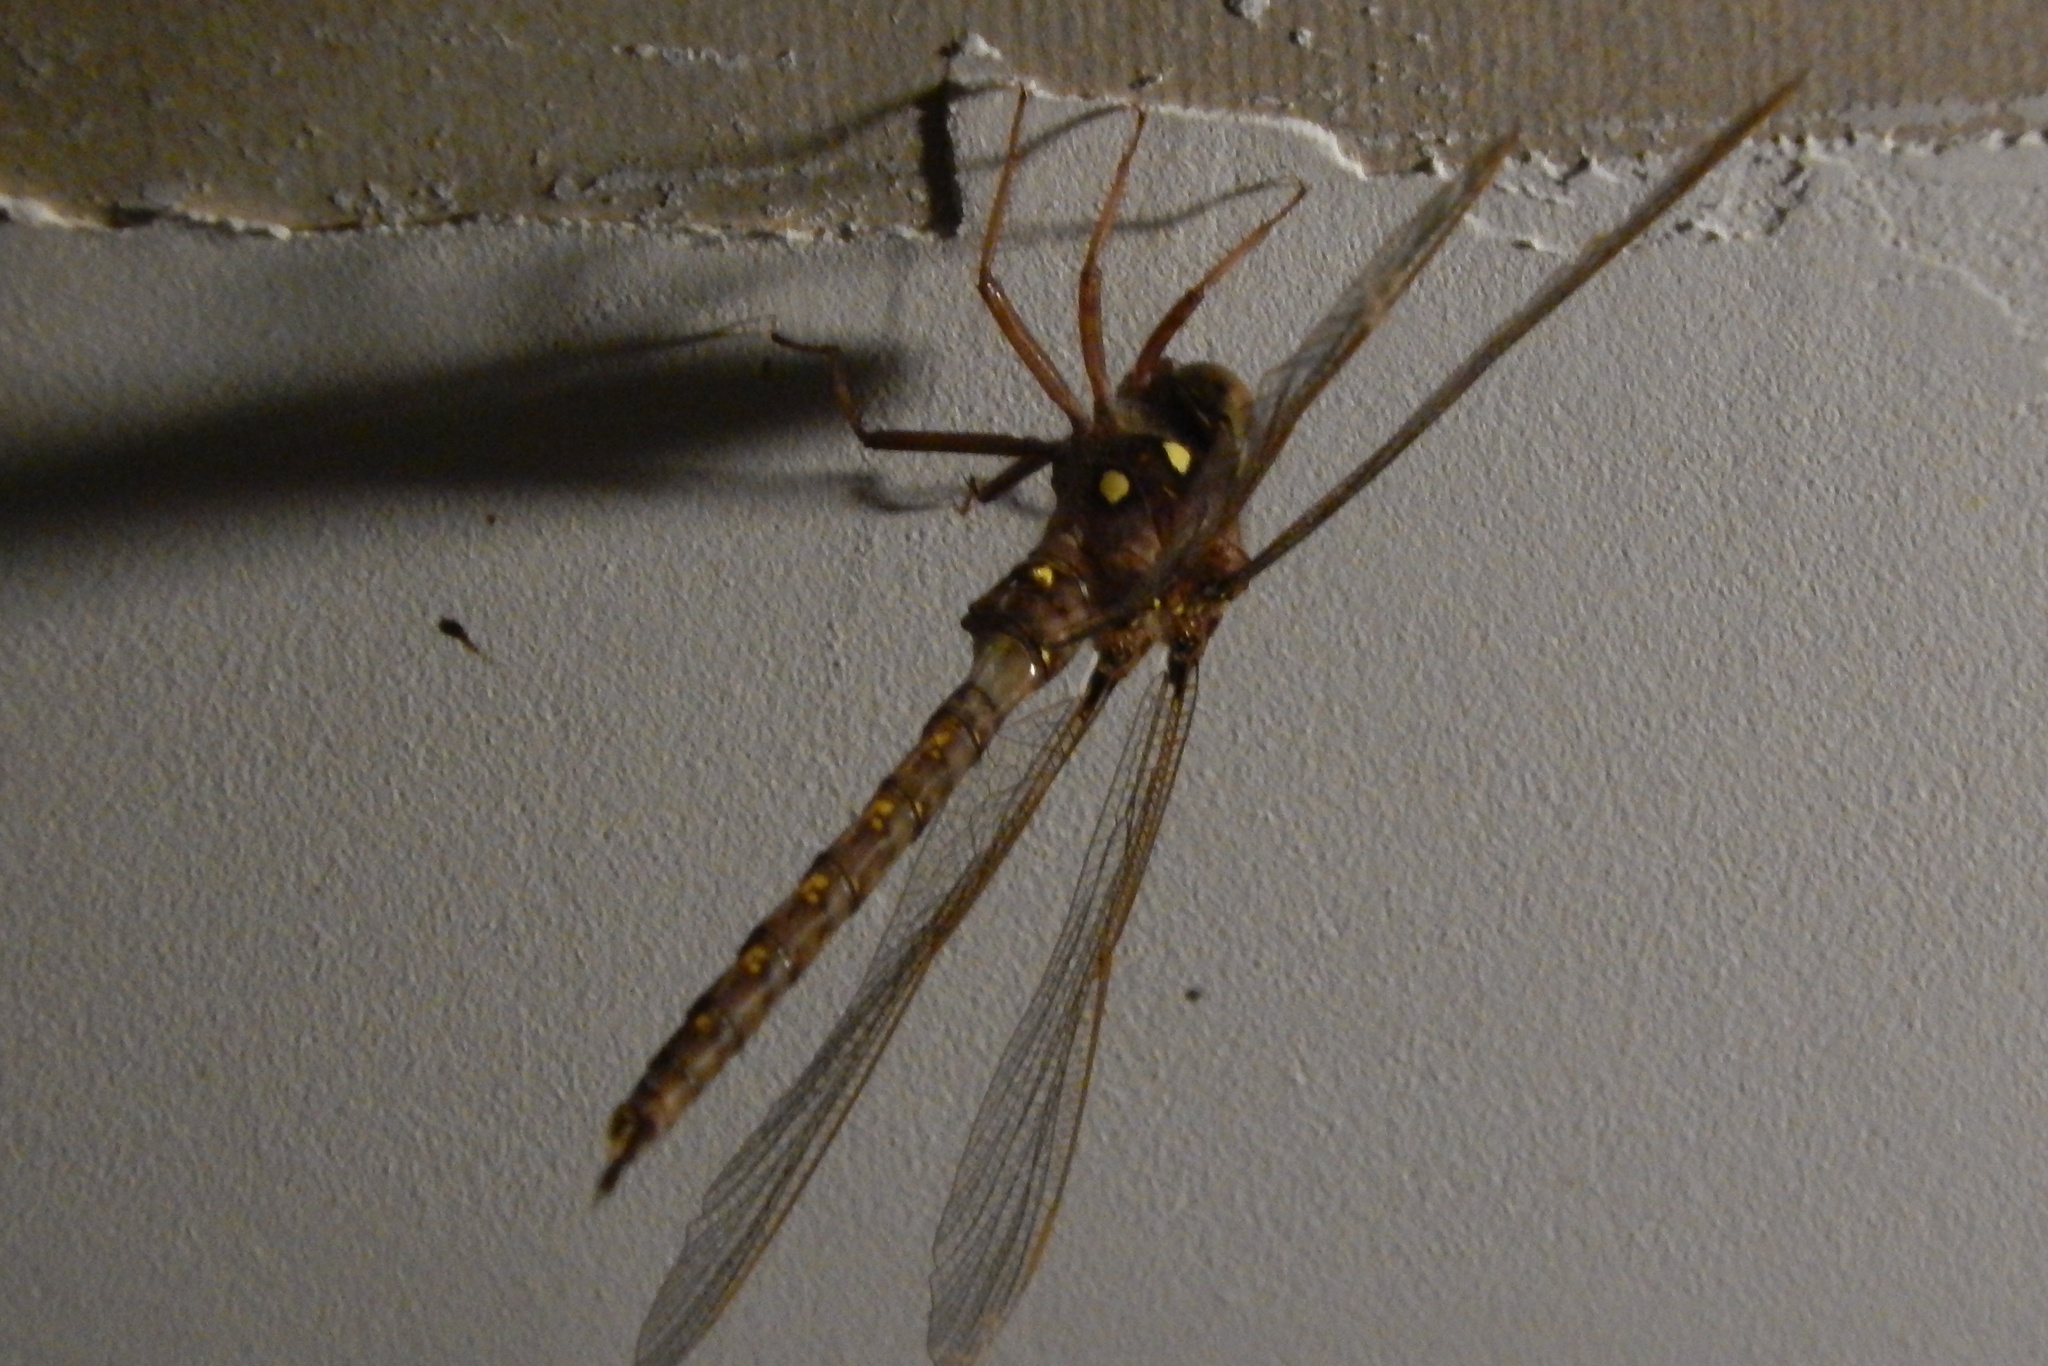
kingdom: Animalia
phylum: Arthropoda
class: Insecta
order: Odonata
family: Aeshnidae
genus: Boyeria
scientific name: Boyeria vinosa
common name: Fawn darner
